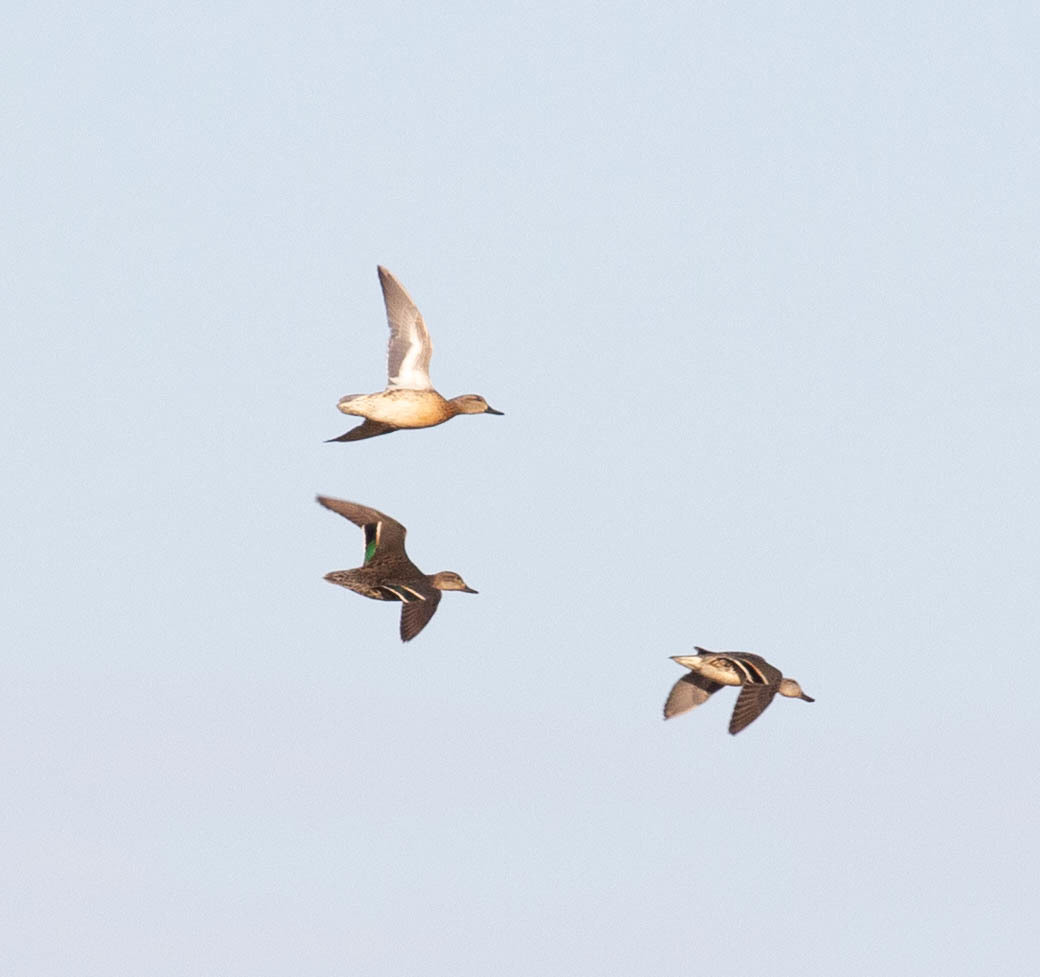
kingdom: Animalia
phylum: Chordata
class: Aves
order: Anseriformes
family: Anatidae
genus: Anas
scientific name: Anas crecca
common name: Eurasian teal
